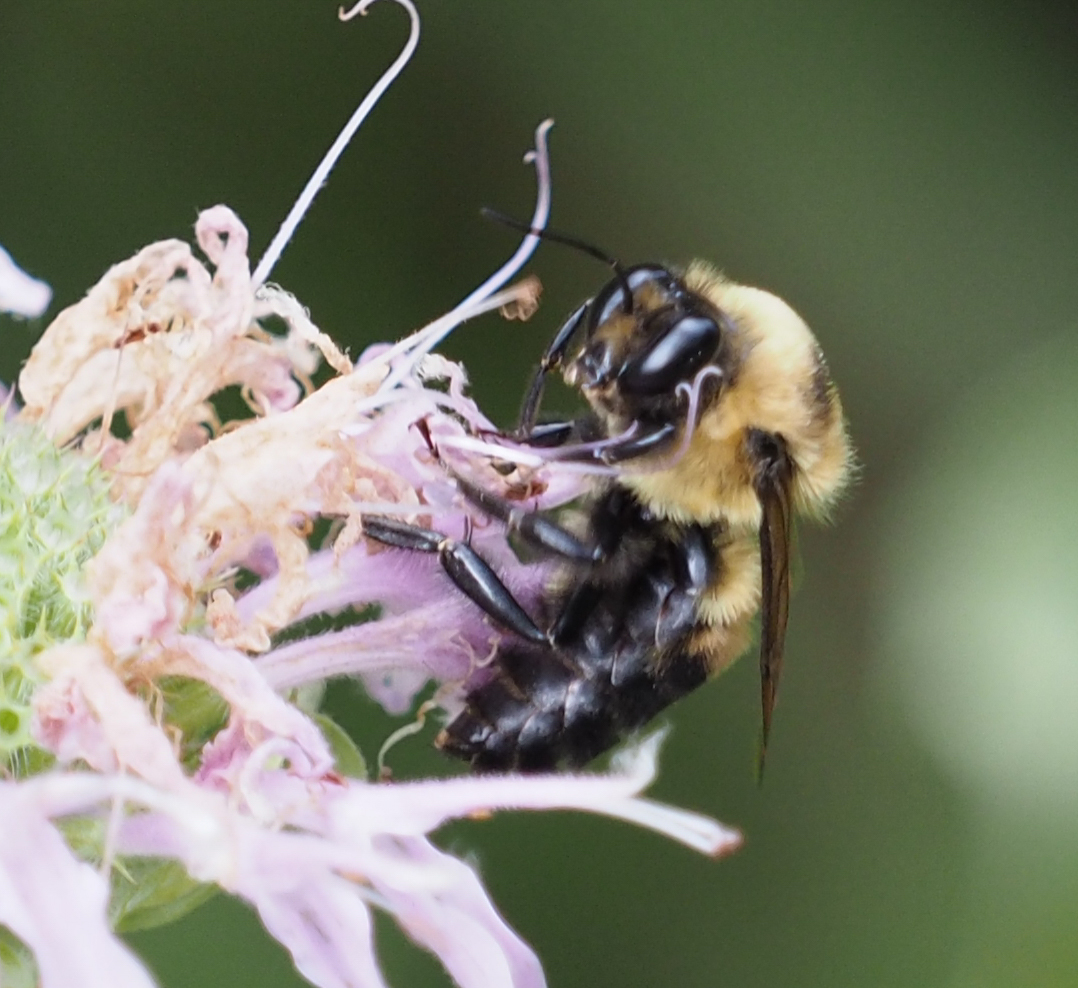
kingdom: Animalia
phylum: Arthropoda
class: Insecta
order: Hymenoptera
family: Apidae
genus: Bombus
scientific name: Bombus griseocollis
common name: Brown-belted bumble bee
